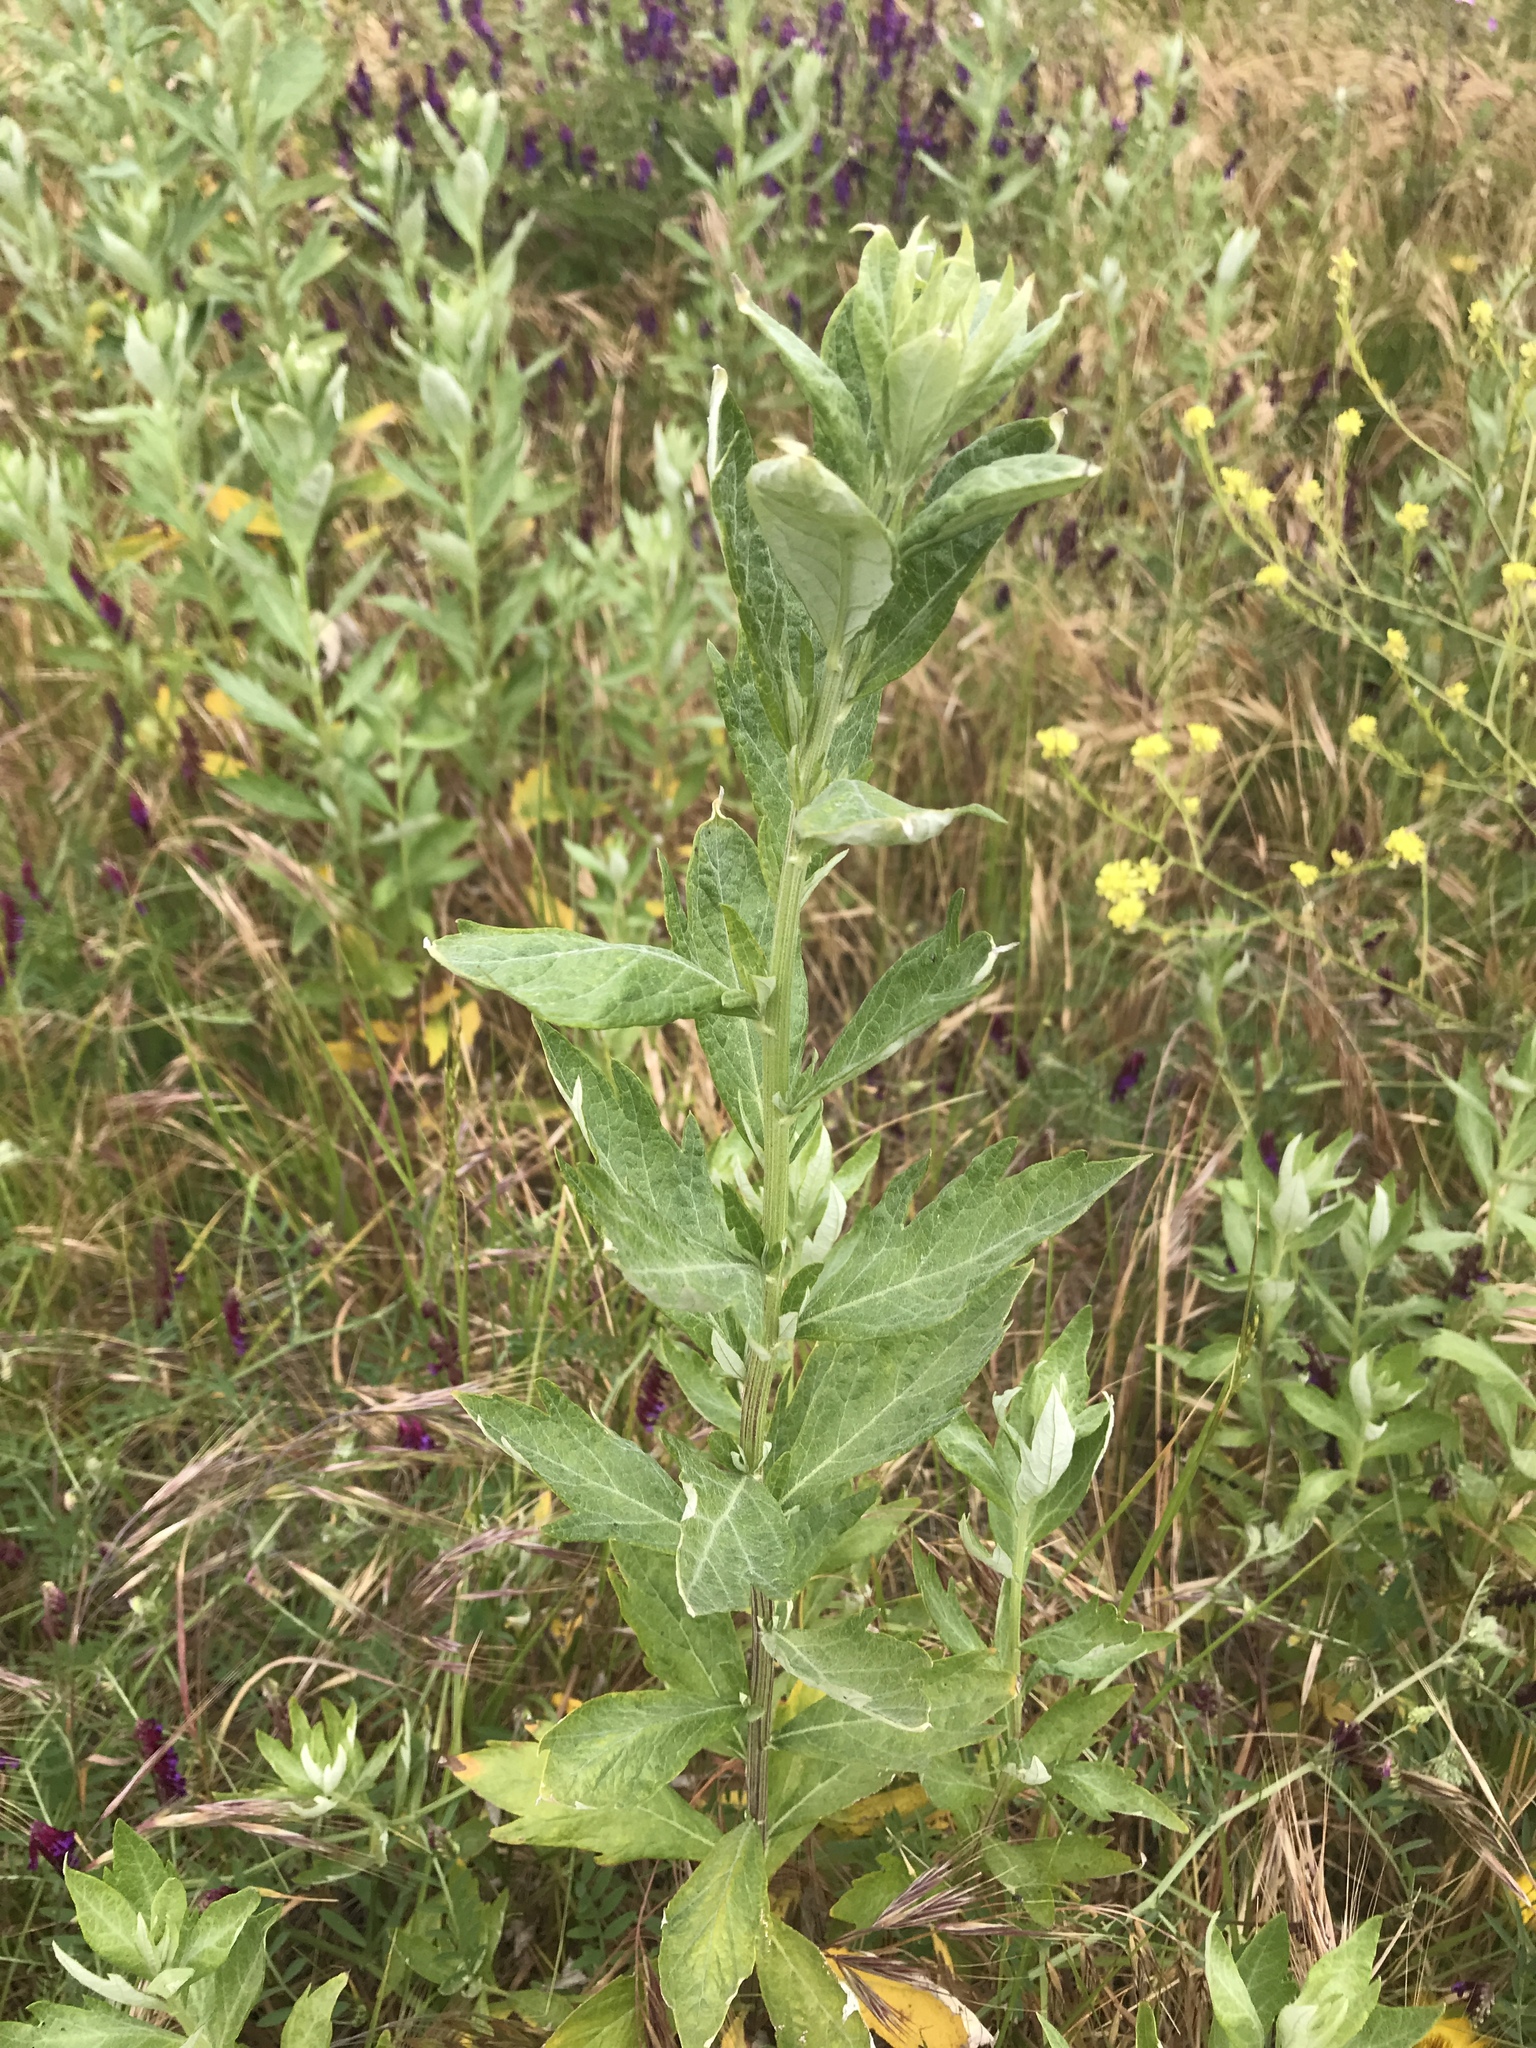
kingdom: Plantae
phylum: Tracheophyta
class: Magnoliopsida
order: Asterales
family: Asteraceae
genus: Artemisia
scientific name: Artemisia douglasiana
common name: Northwest mugwort
